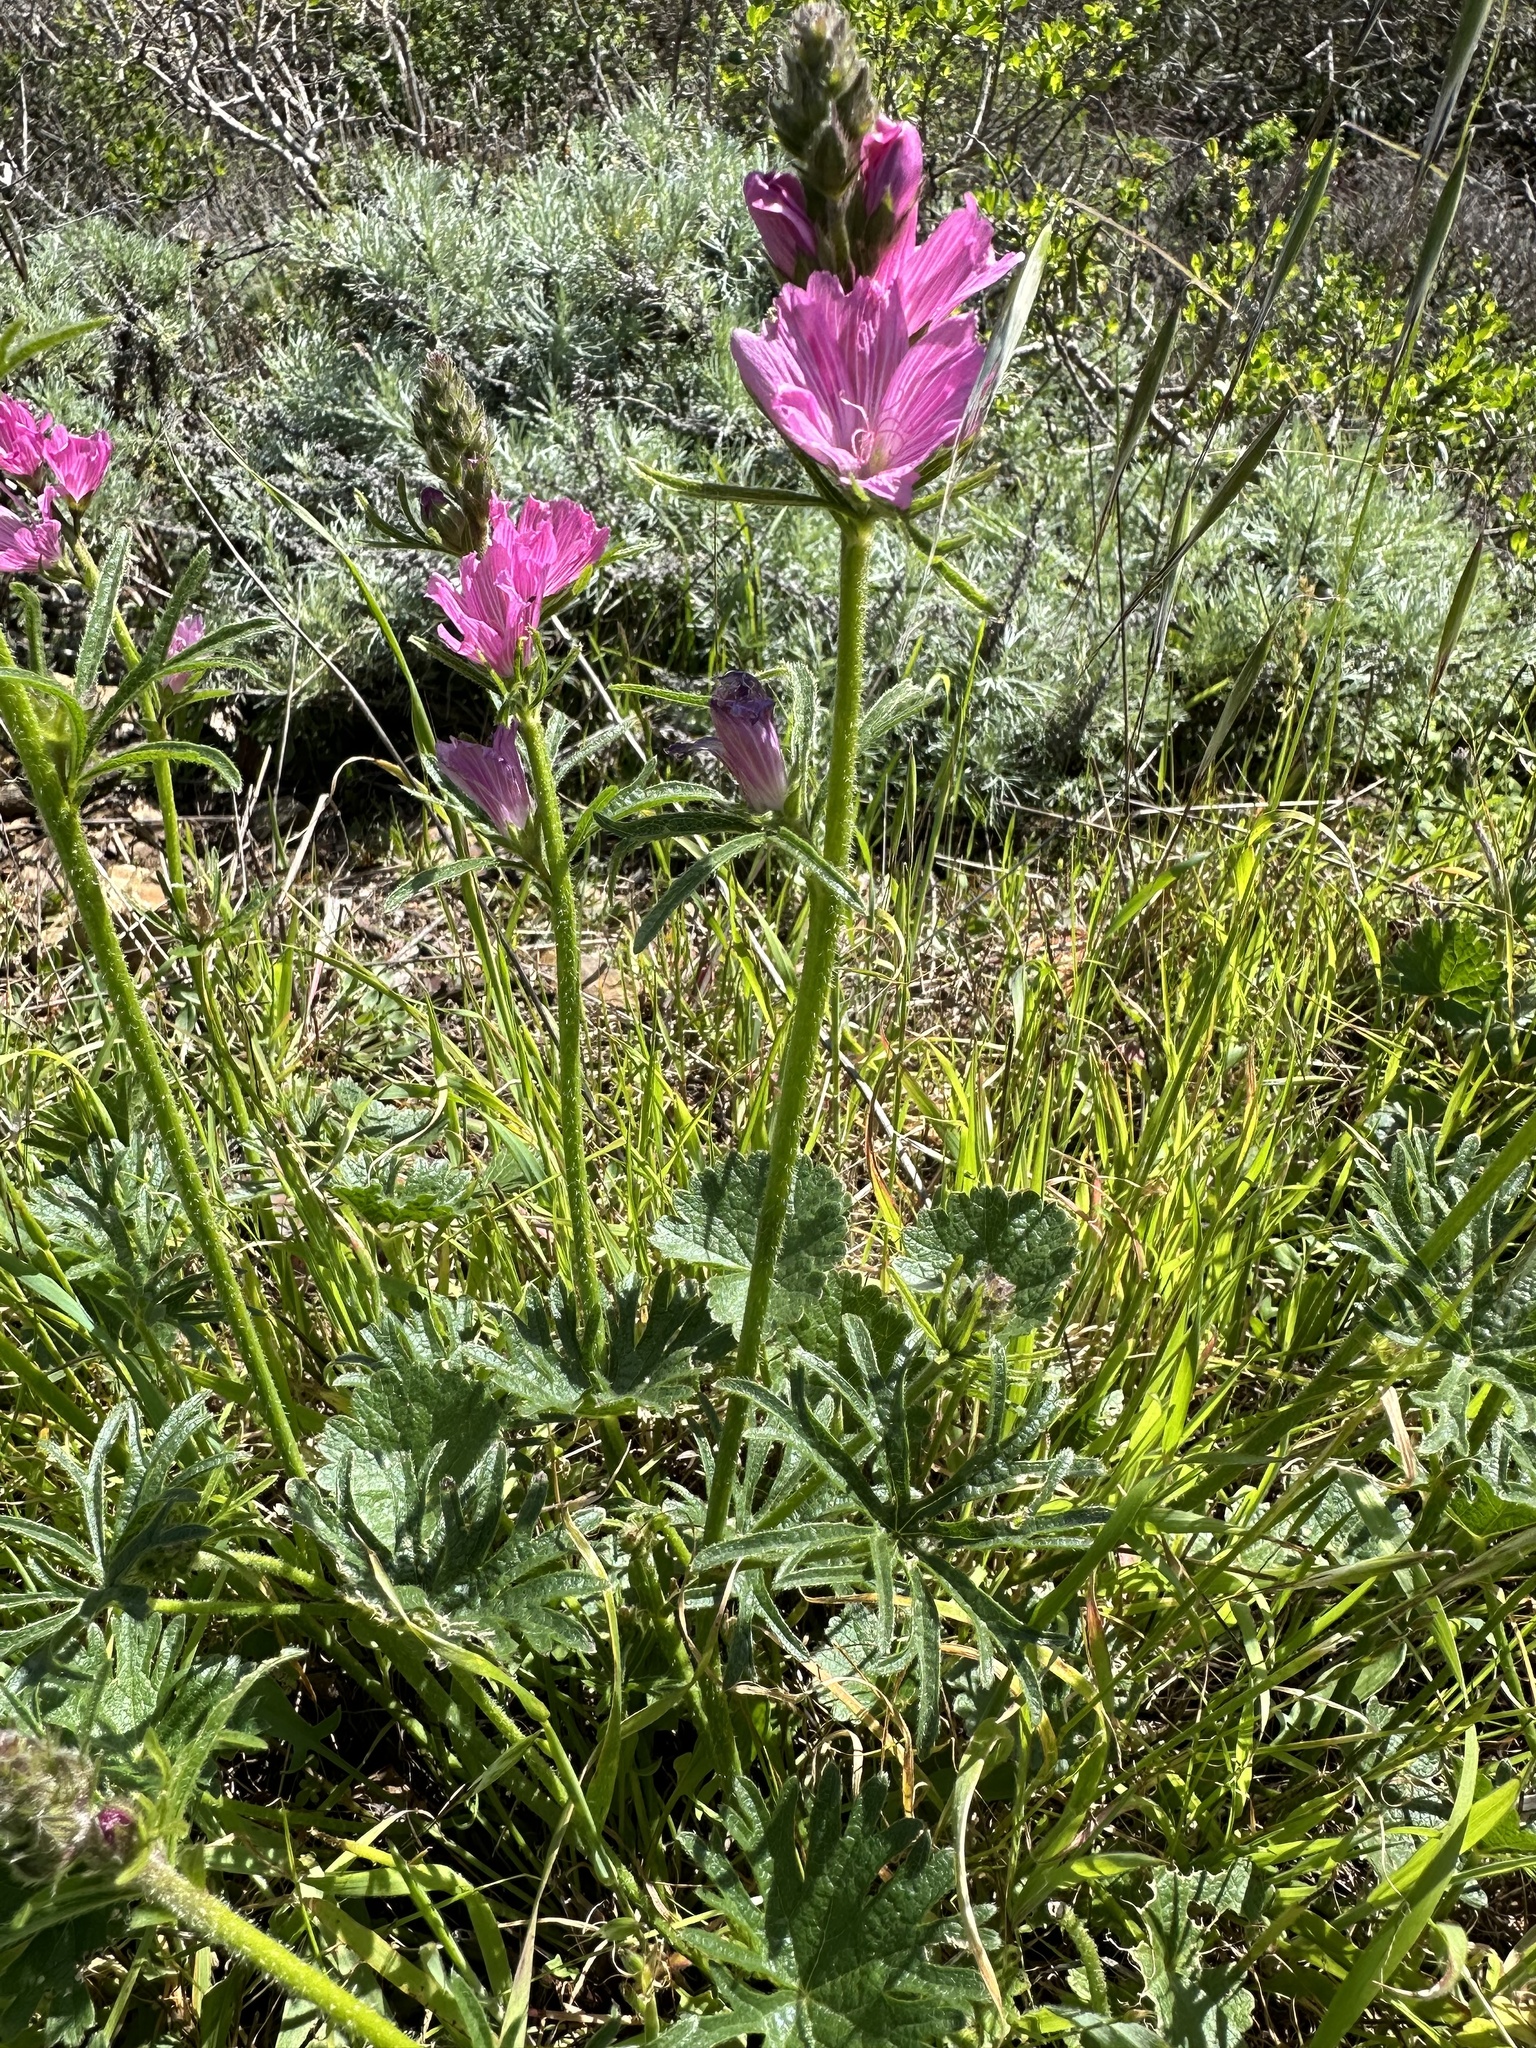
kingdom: Plantae
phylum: Tracheophyta
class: Magnoliopsida
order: Malvales
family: Malvaceae
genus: Sidalcea
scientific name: Sidalcea malviflora
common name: Greek mallow
